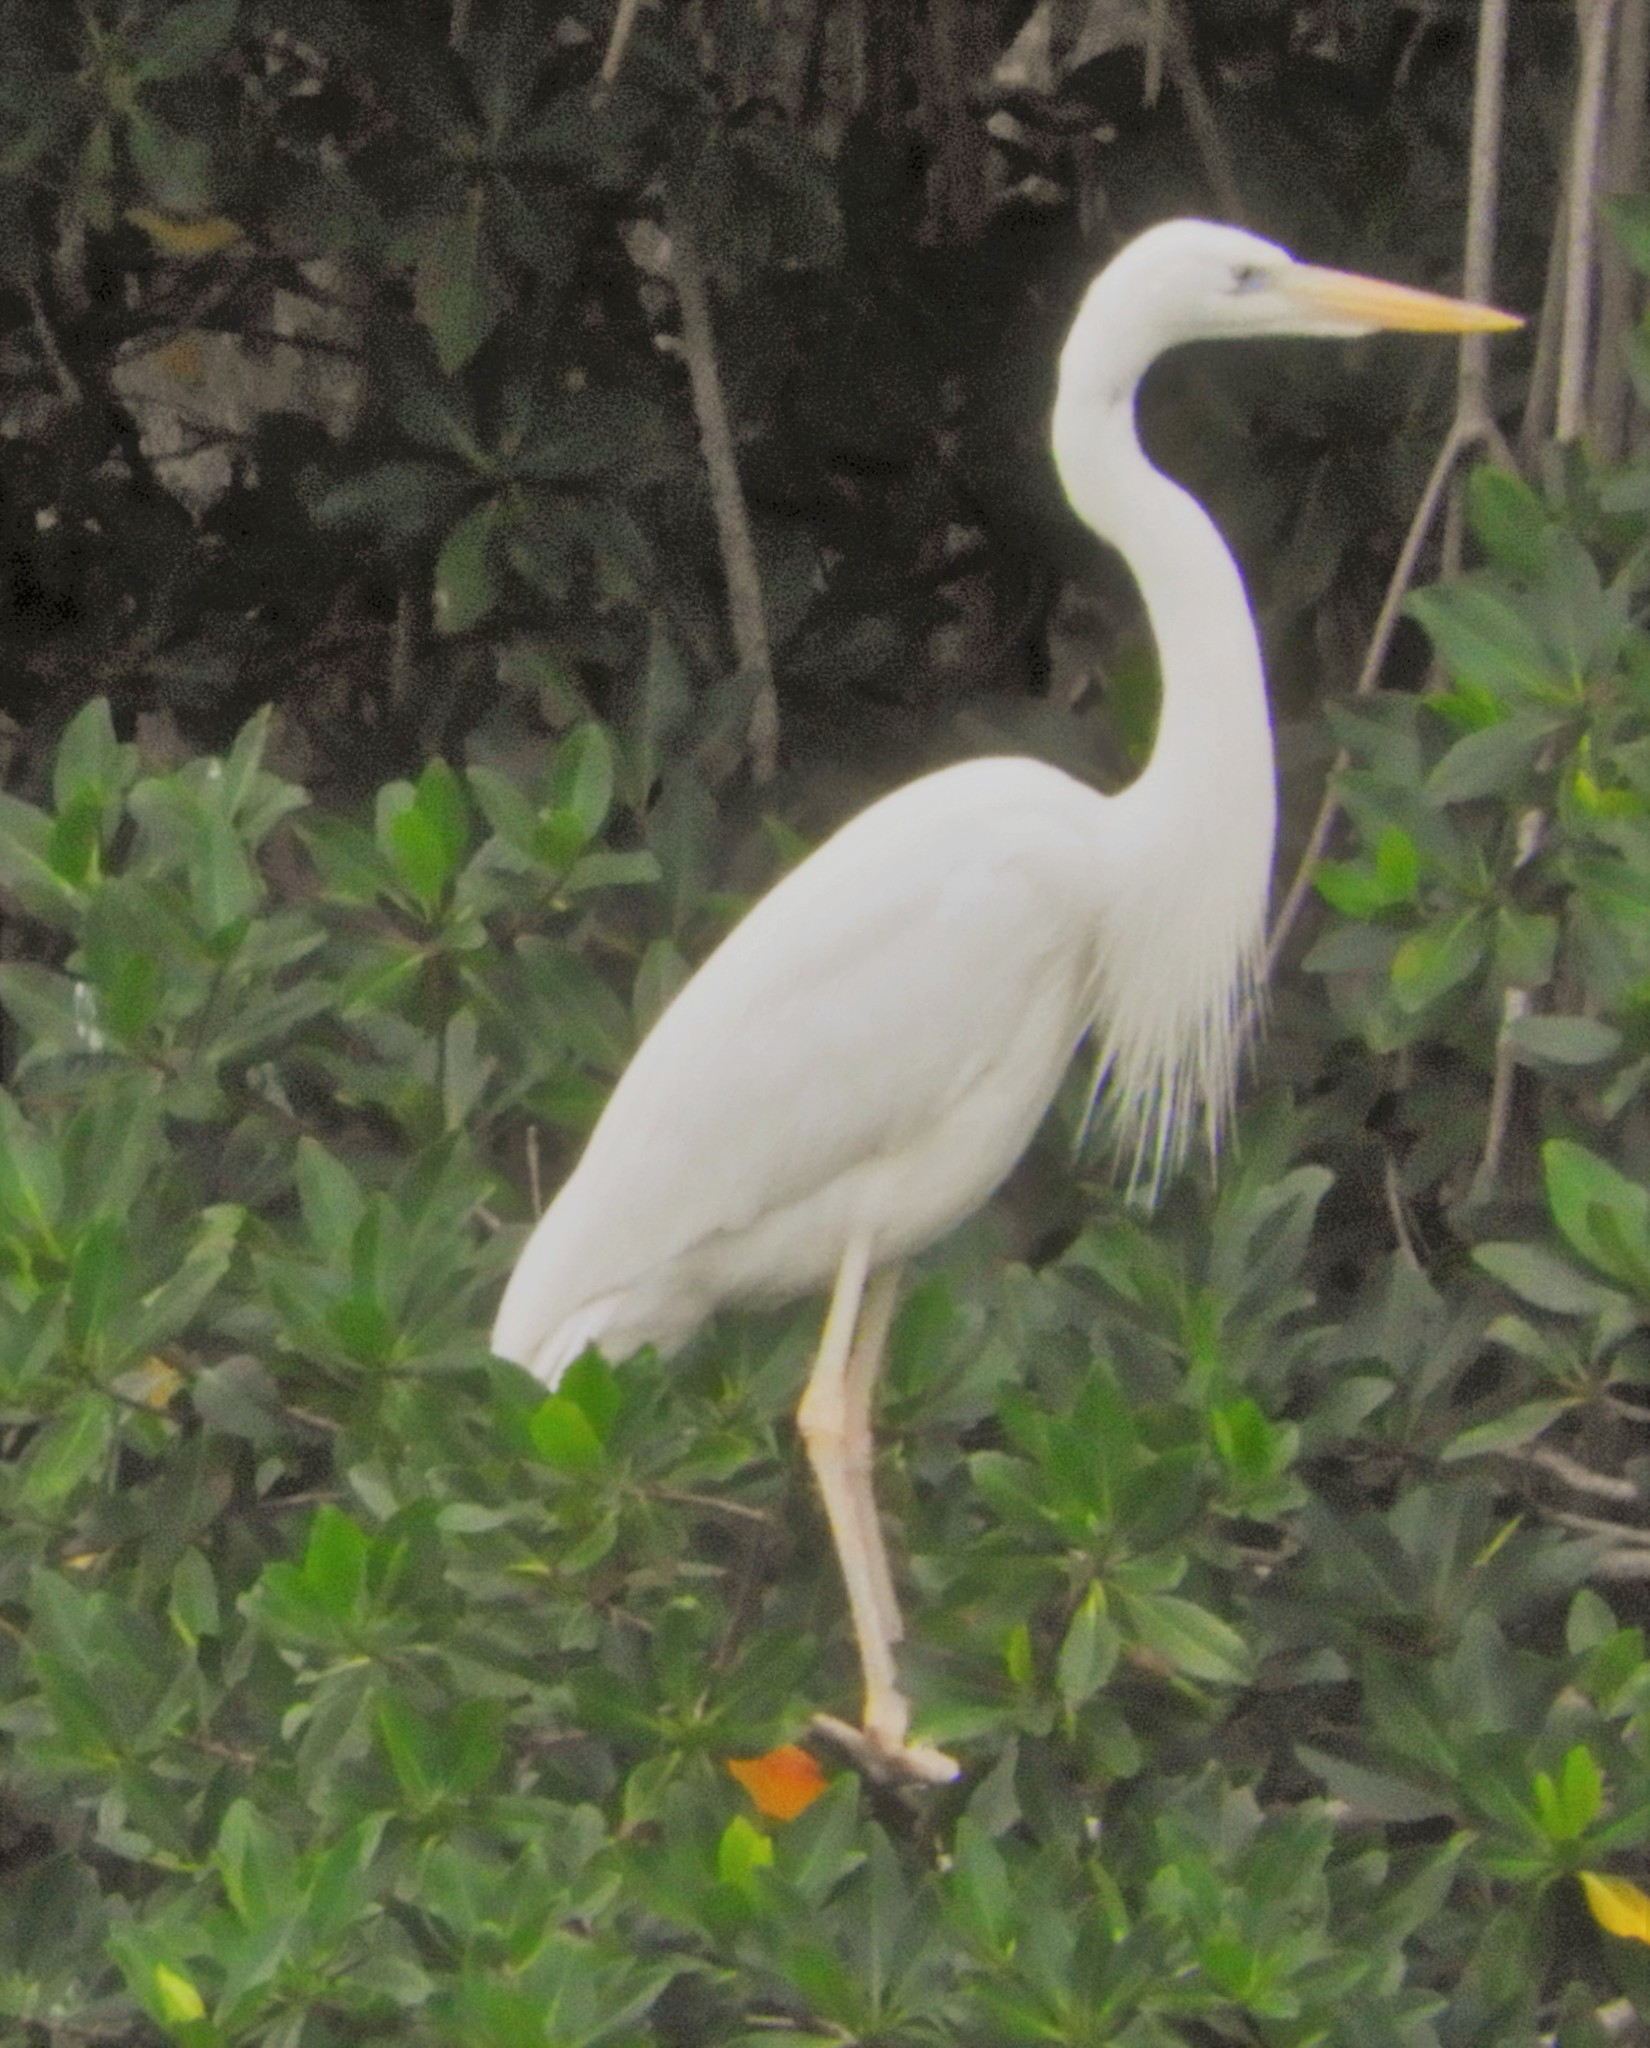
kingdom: Animalia
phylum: Chordata
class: Aves
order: Pelecaniformes
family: Ardeidae
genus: Ardea
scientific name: Ardea herodias
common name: Great blue heron
